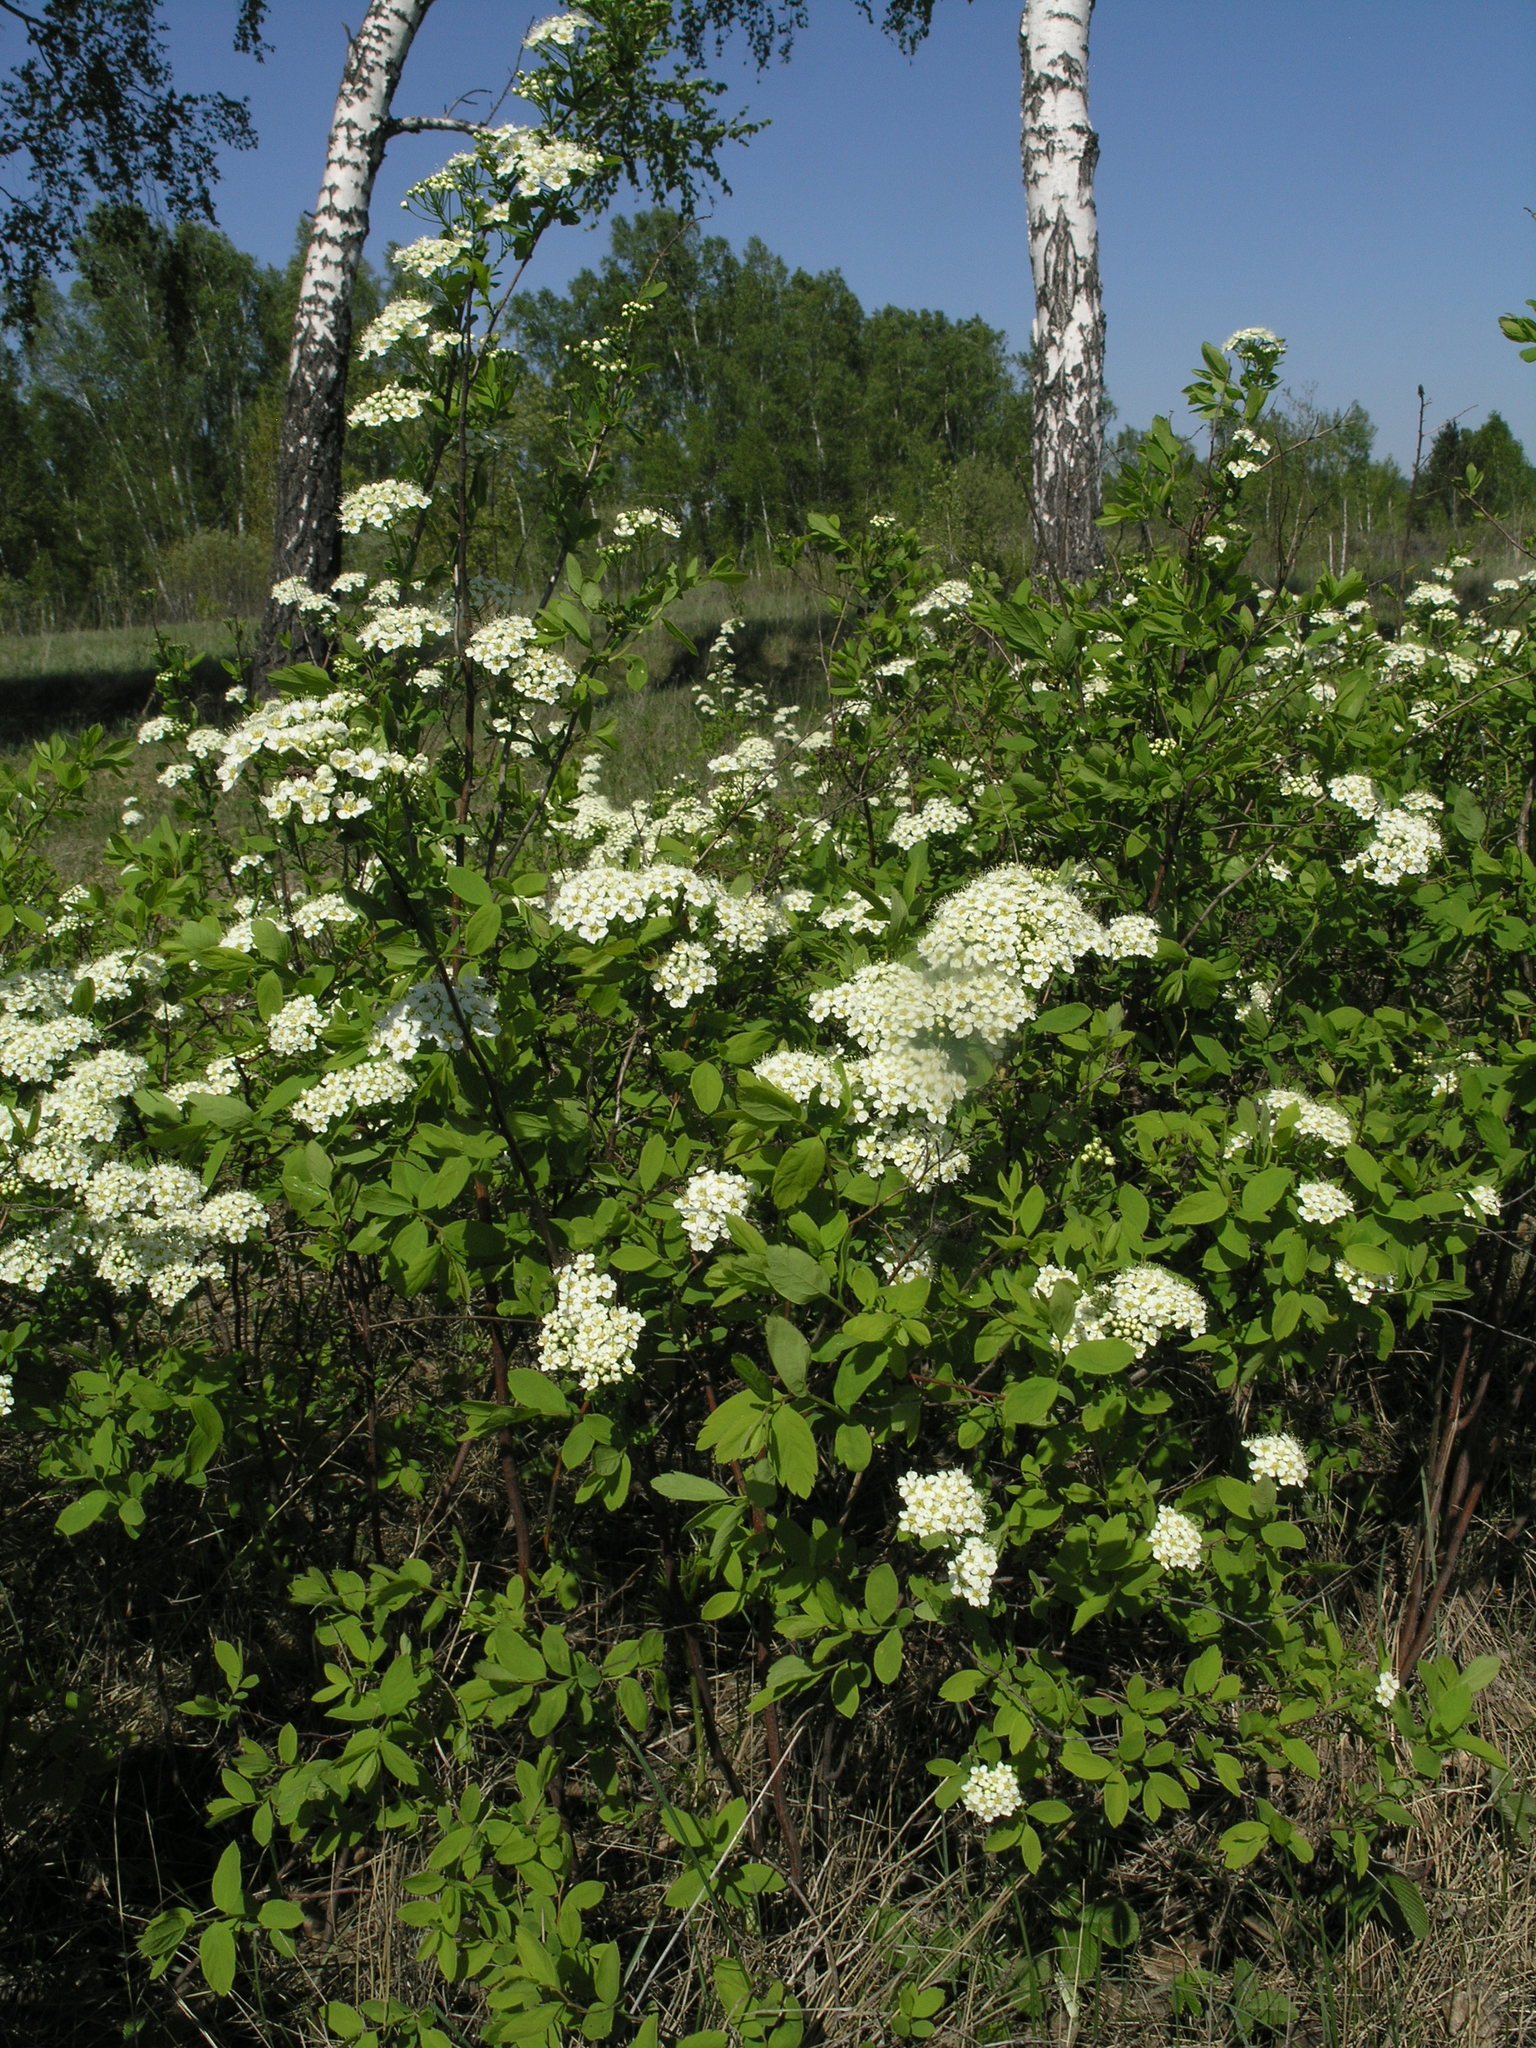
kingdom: Plantae
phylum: Tracheophyta
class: Magnoliopsida
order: Rosales
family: Rosaceae
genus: Spiraea
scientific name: Spiraea media
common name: Russian spiraea
